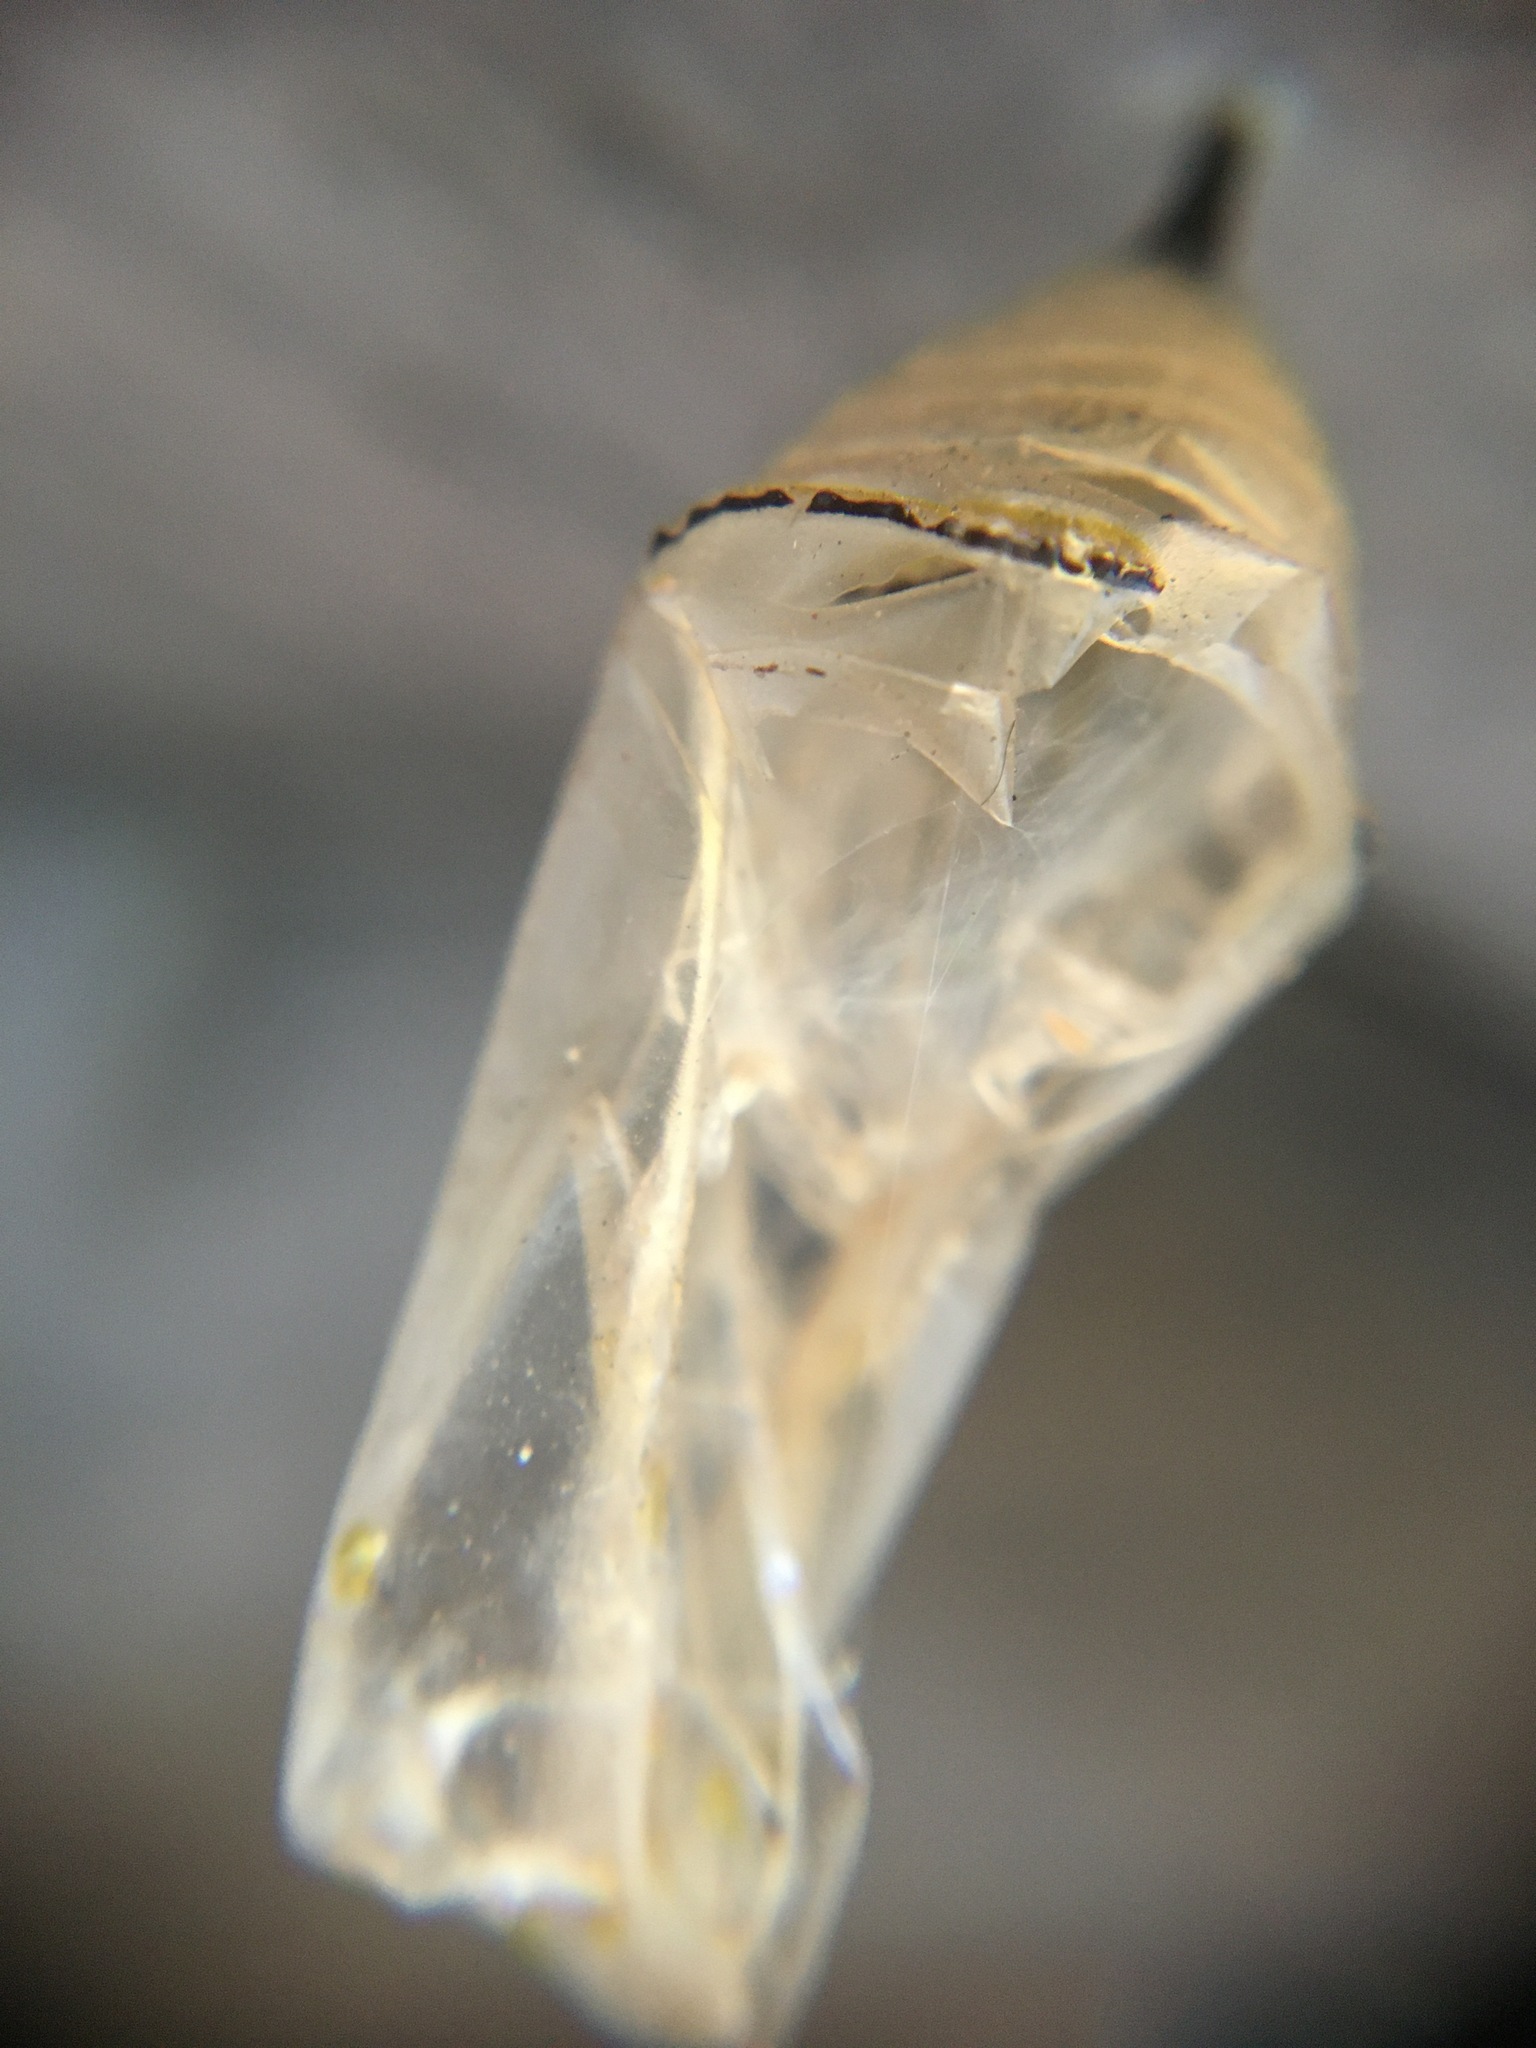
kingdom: Animalia
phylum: Arthropoda
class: Insecta
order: Lepidoptera
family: Nymphalidae
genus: Danaus
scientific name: Danaus plexippus
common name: Monarch
